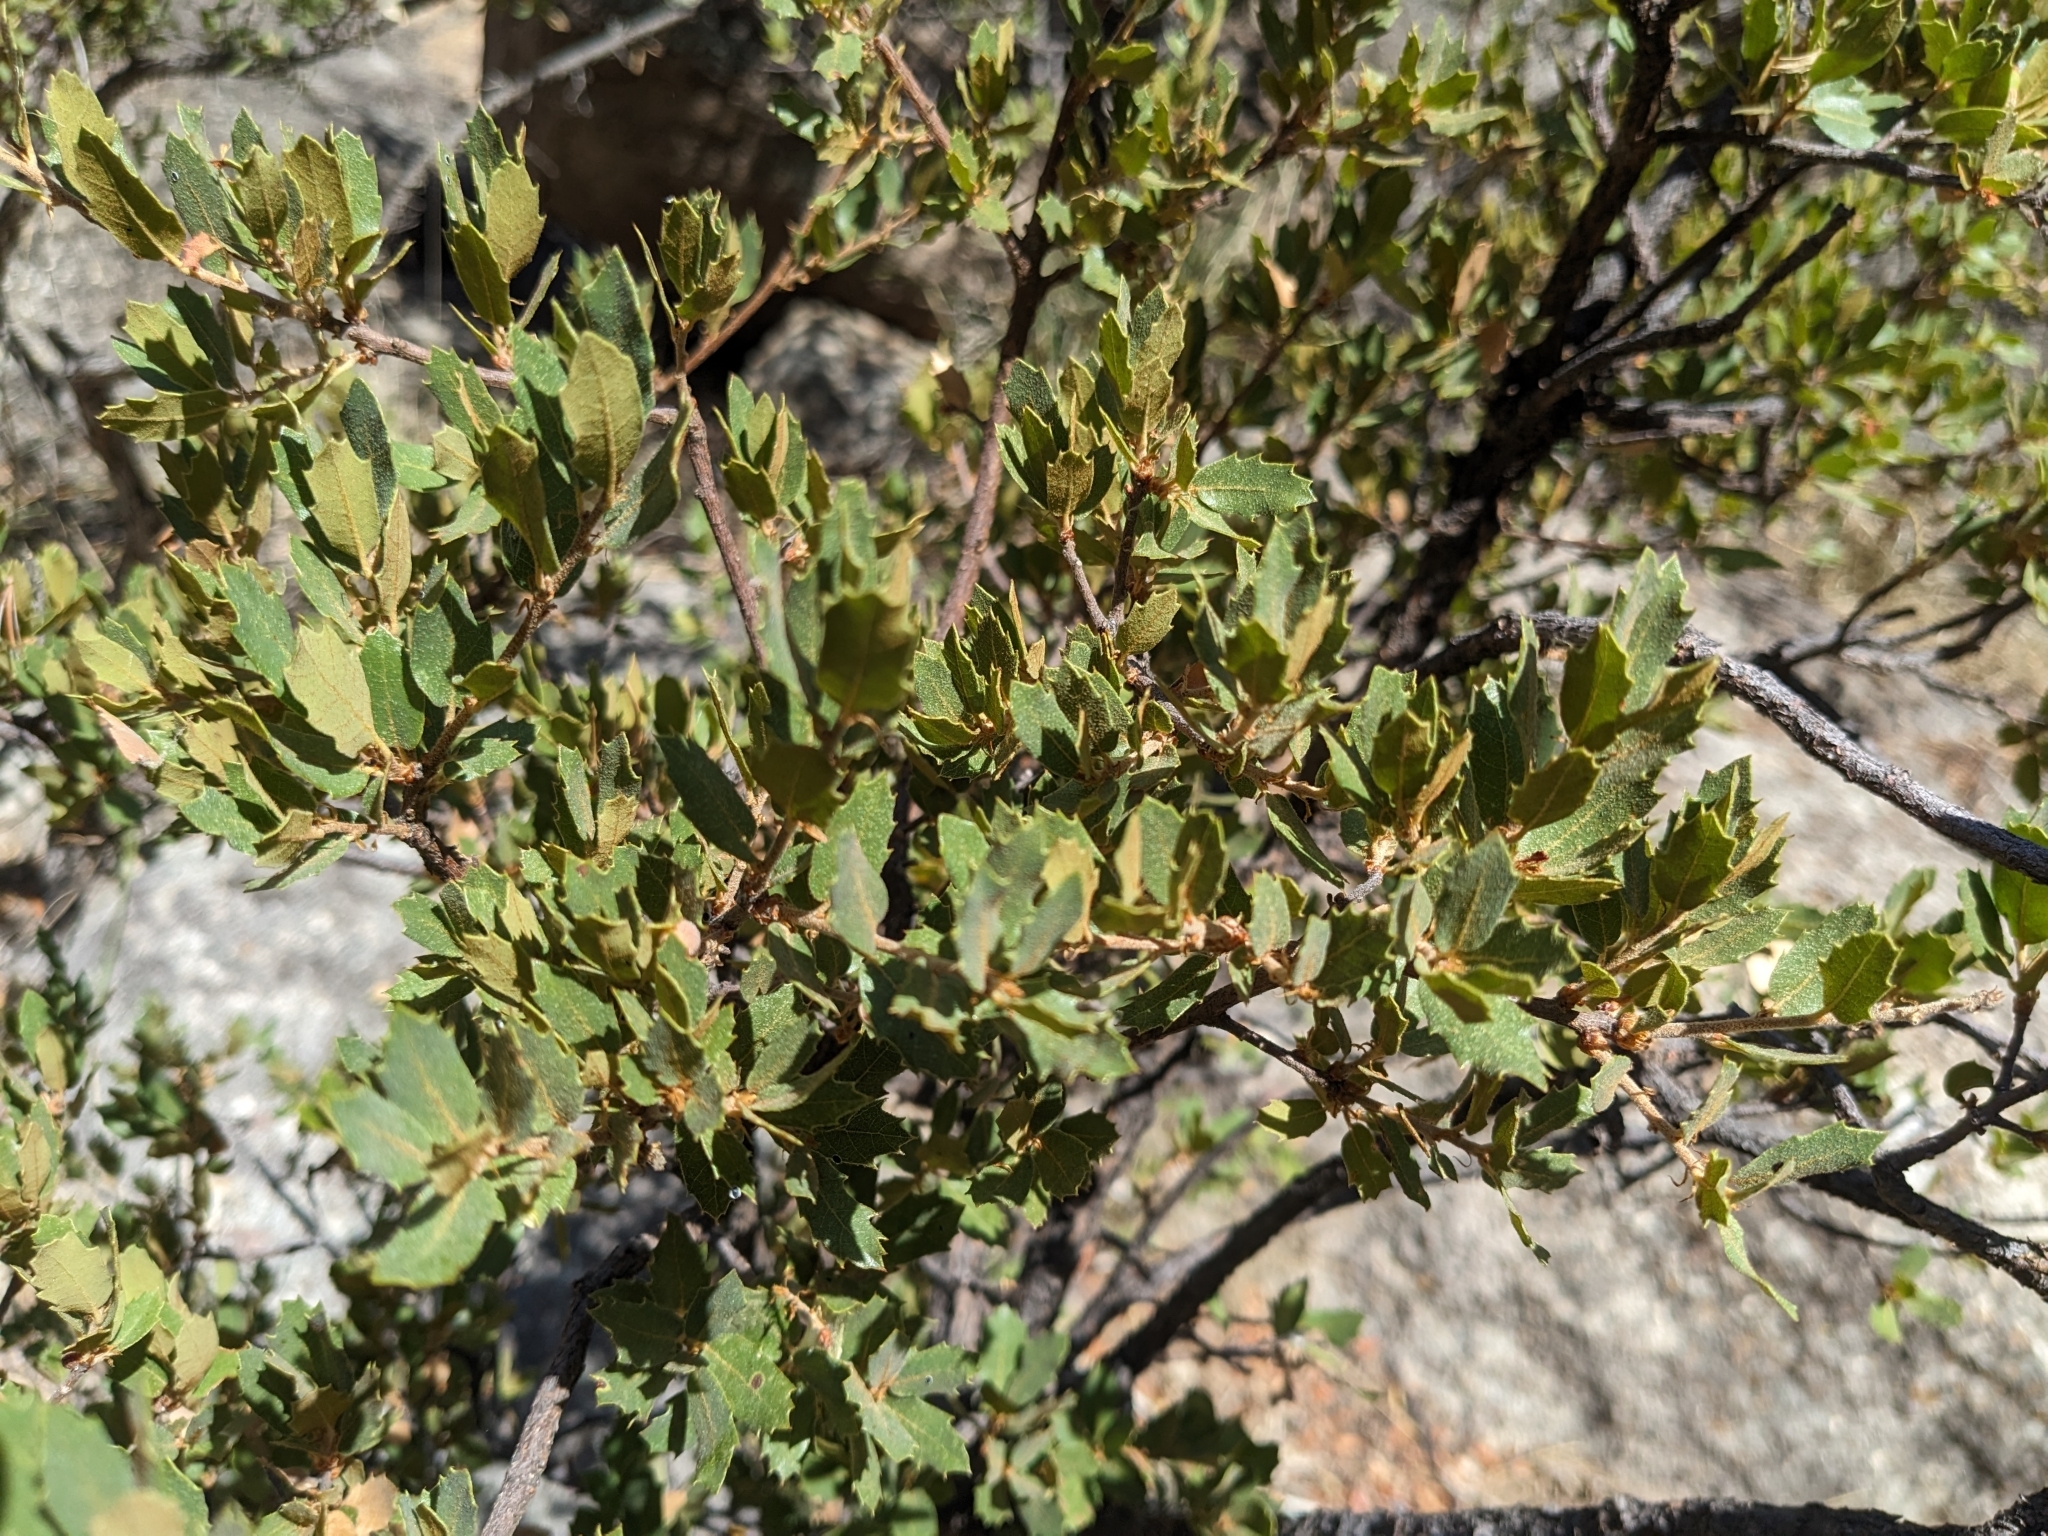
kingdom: Plantae
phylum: Tracheophyta
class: Magnoliopsida
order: Fagales
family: Fagaceae
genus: Quercus
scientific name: Quercus toumeyi
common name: Toumey oak
